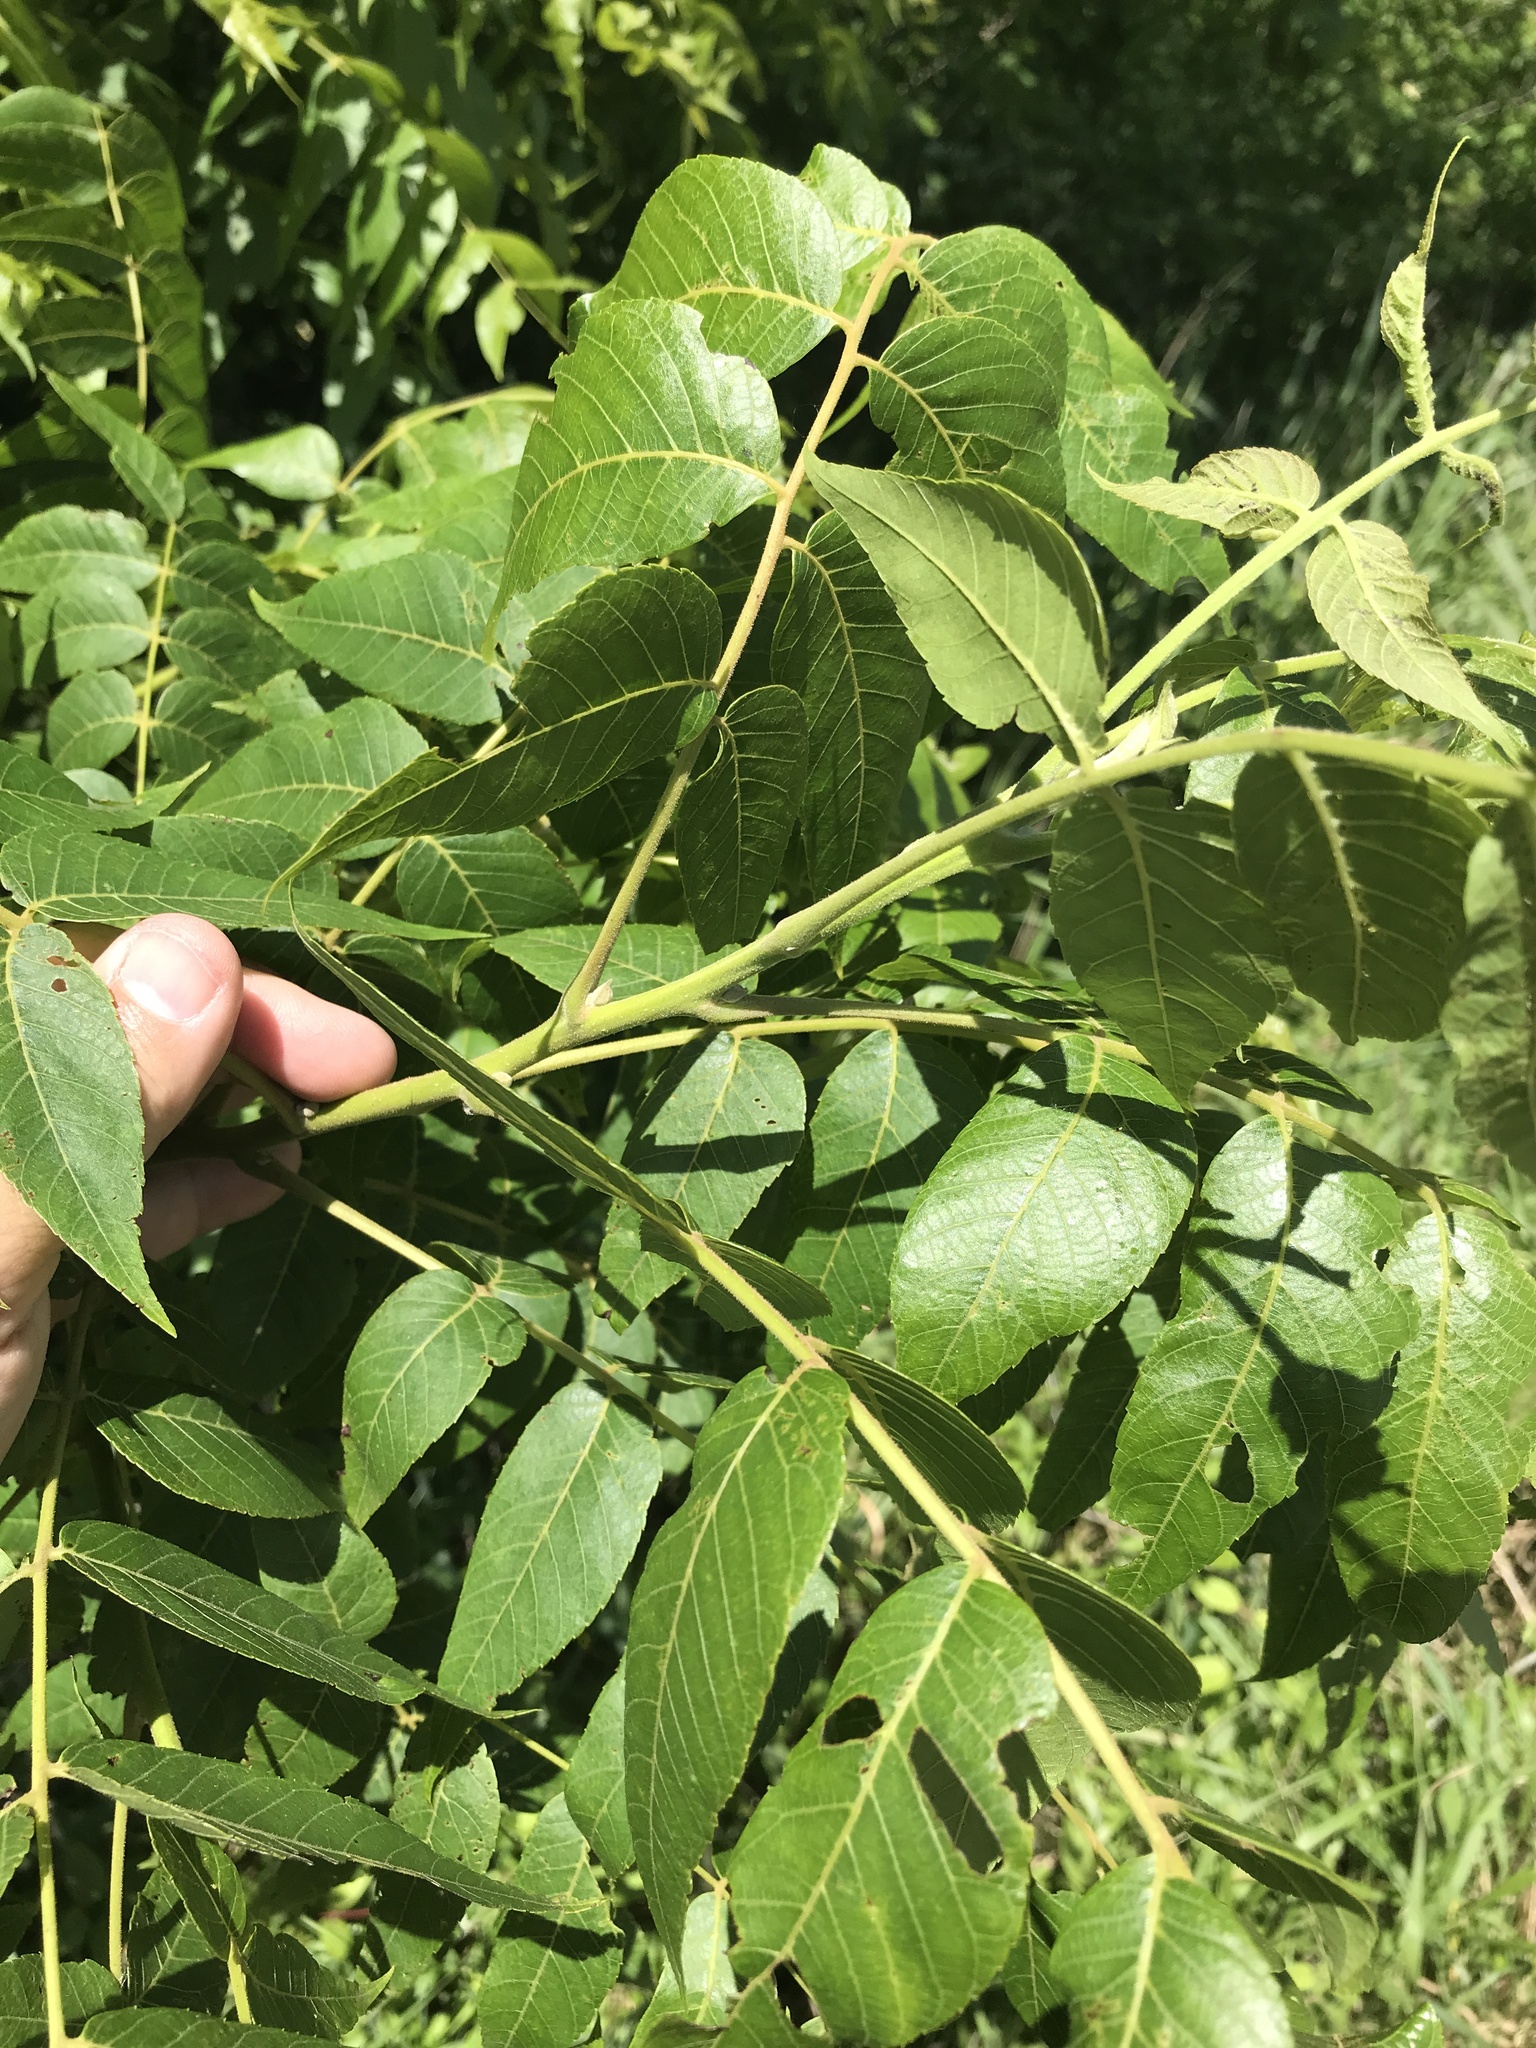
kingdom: Plantae
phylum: Tracheophyta
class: Magnoliopsida
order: Fagales
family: Juglandaceae
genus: Juglans
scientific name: Juglans microcarpa
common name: Texas walnut
